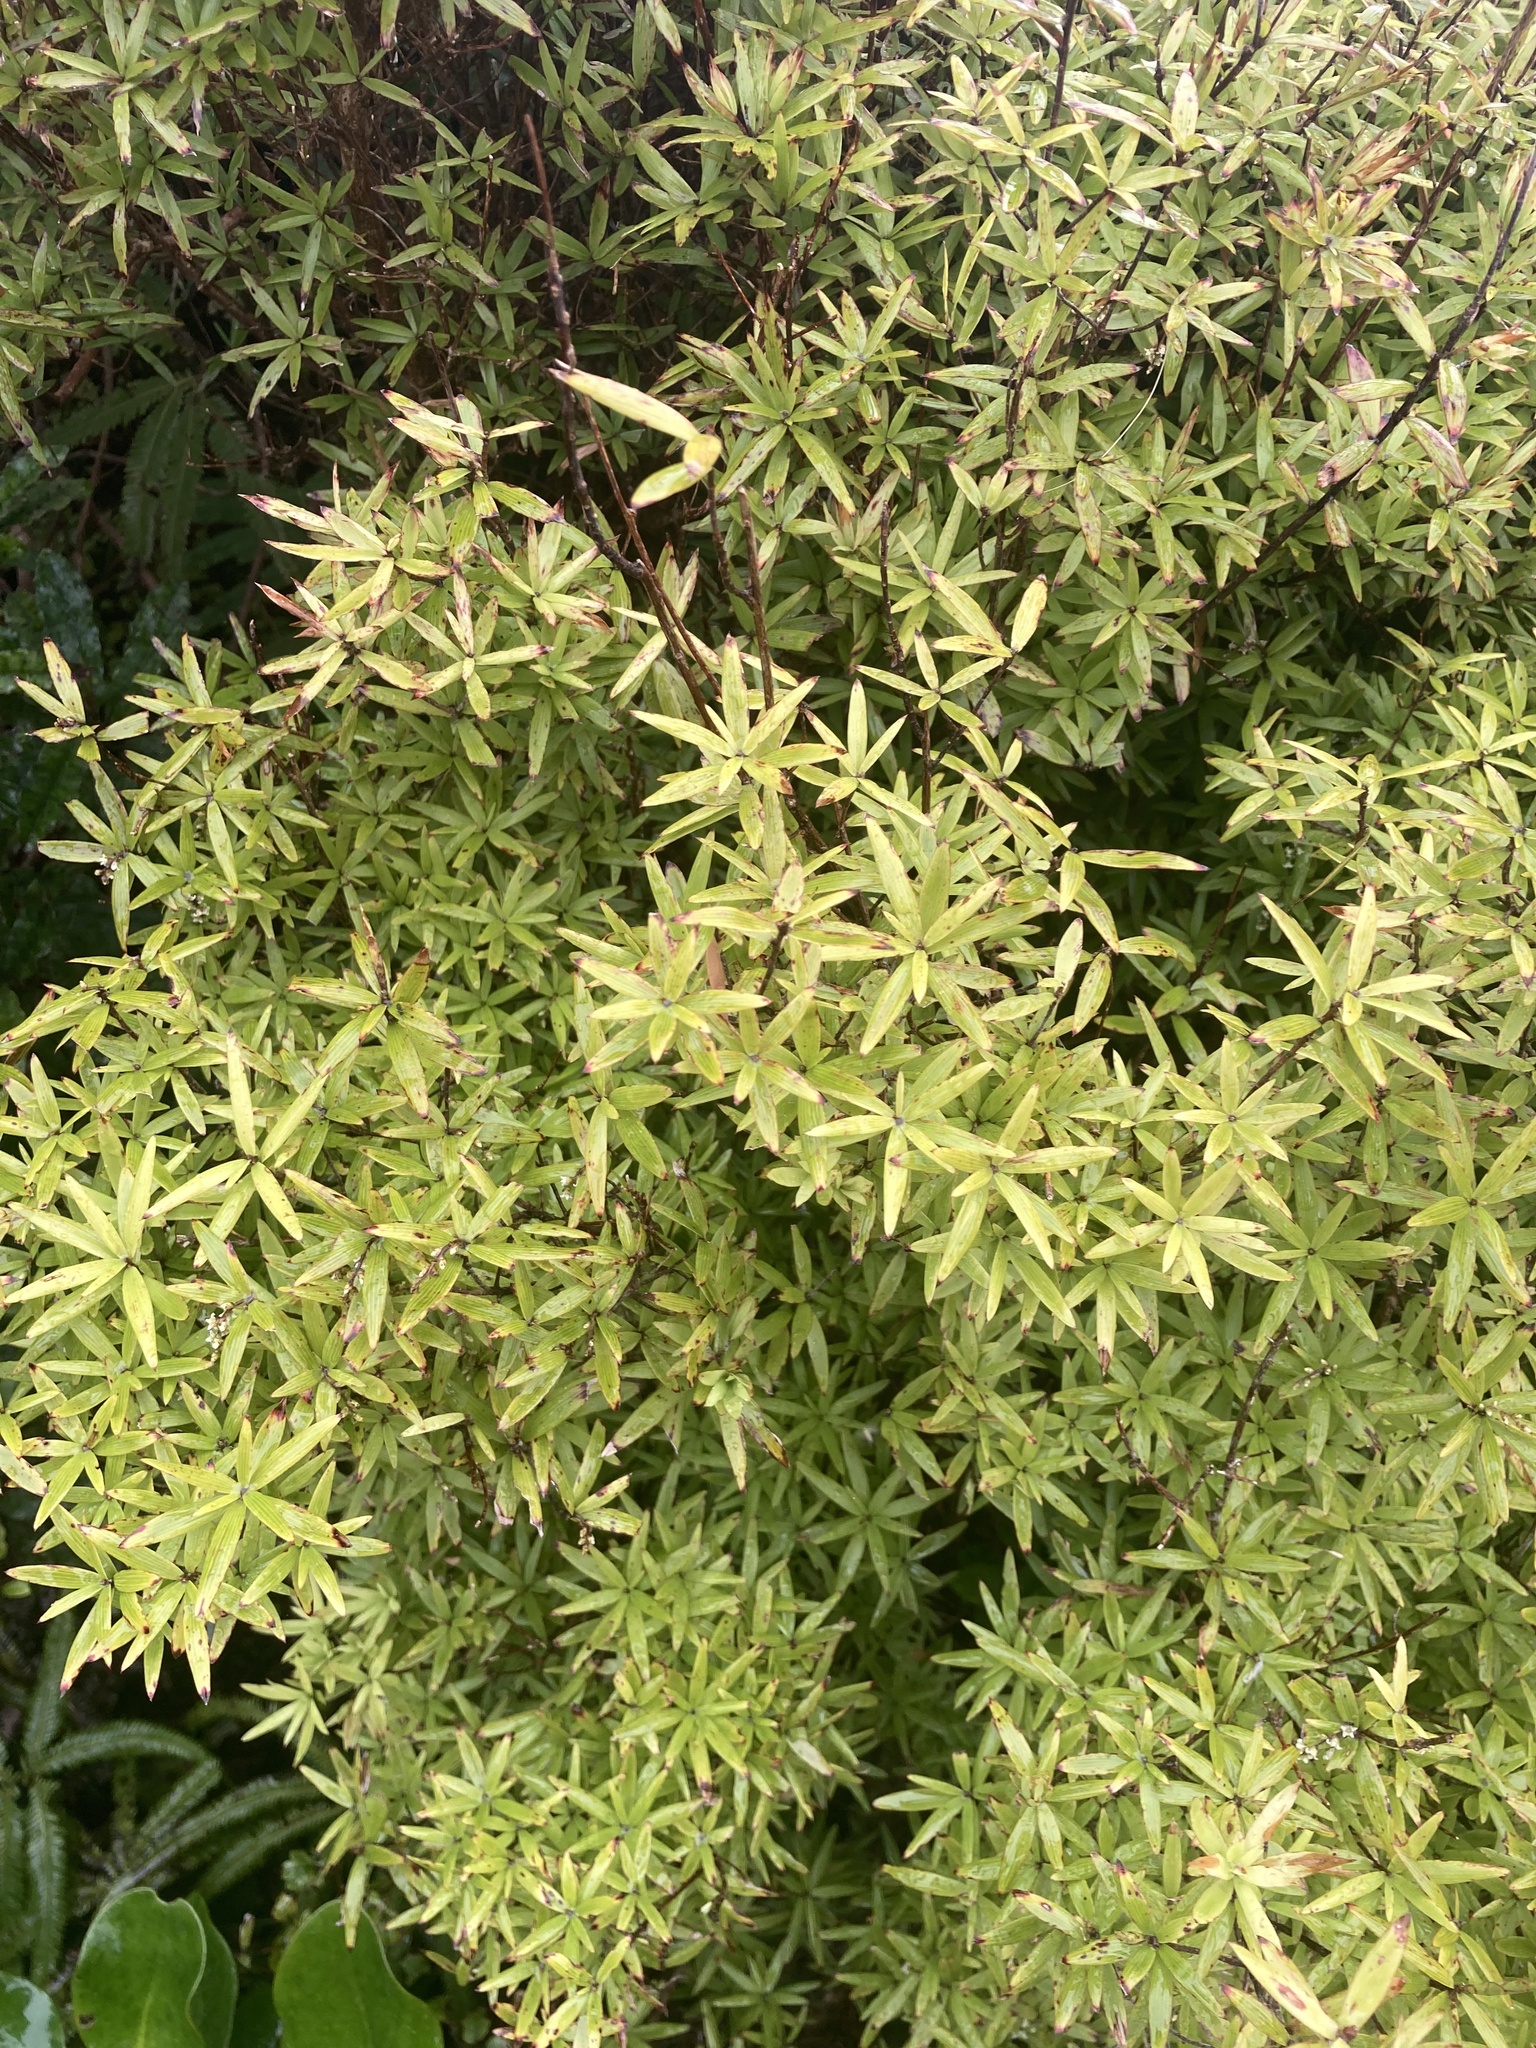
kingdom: Plantae
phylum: Tracheophyta
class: Magnoliopsida
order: Ericales
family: Ericaceae
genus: Leucopogon
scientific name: Leucopogon fasciculatus
